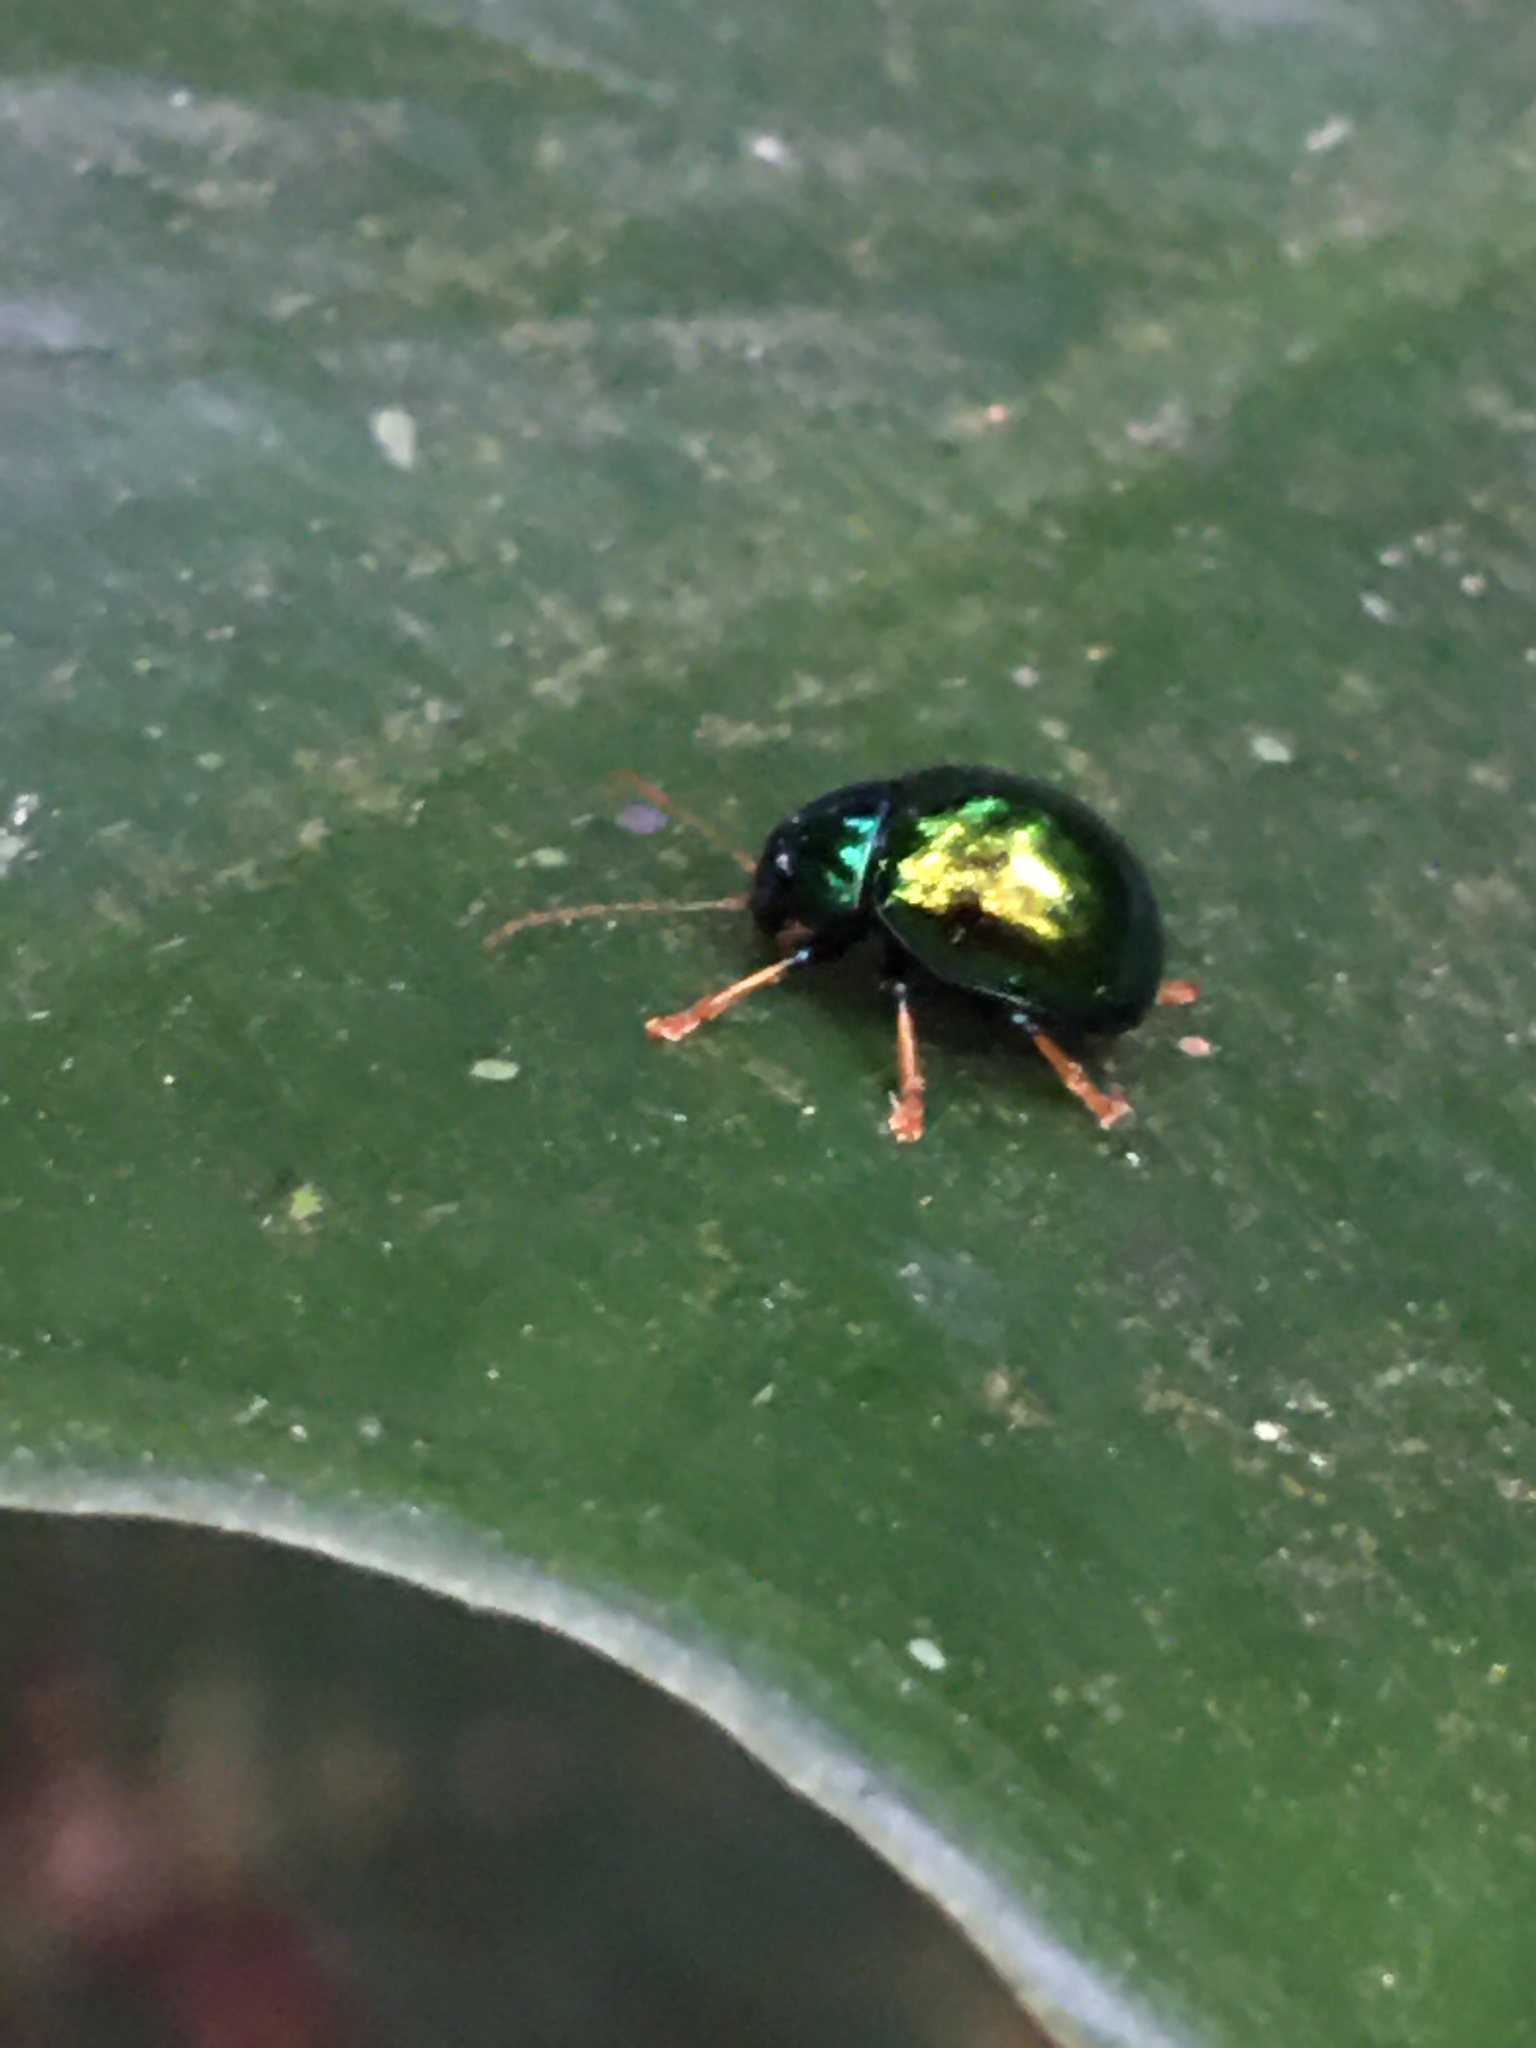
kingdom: Animalia
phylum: Arthropoda
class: Insecta
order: Coleoptera
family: Chrysomelidae
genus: Colaspoides
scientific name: Colaspoides
